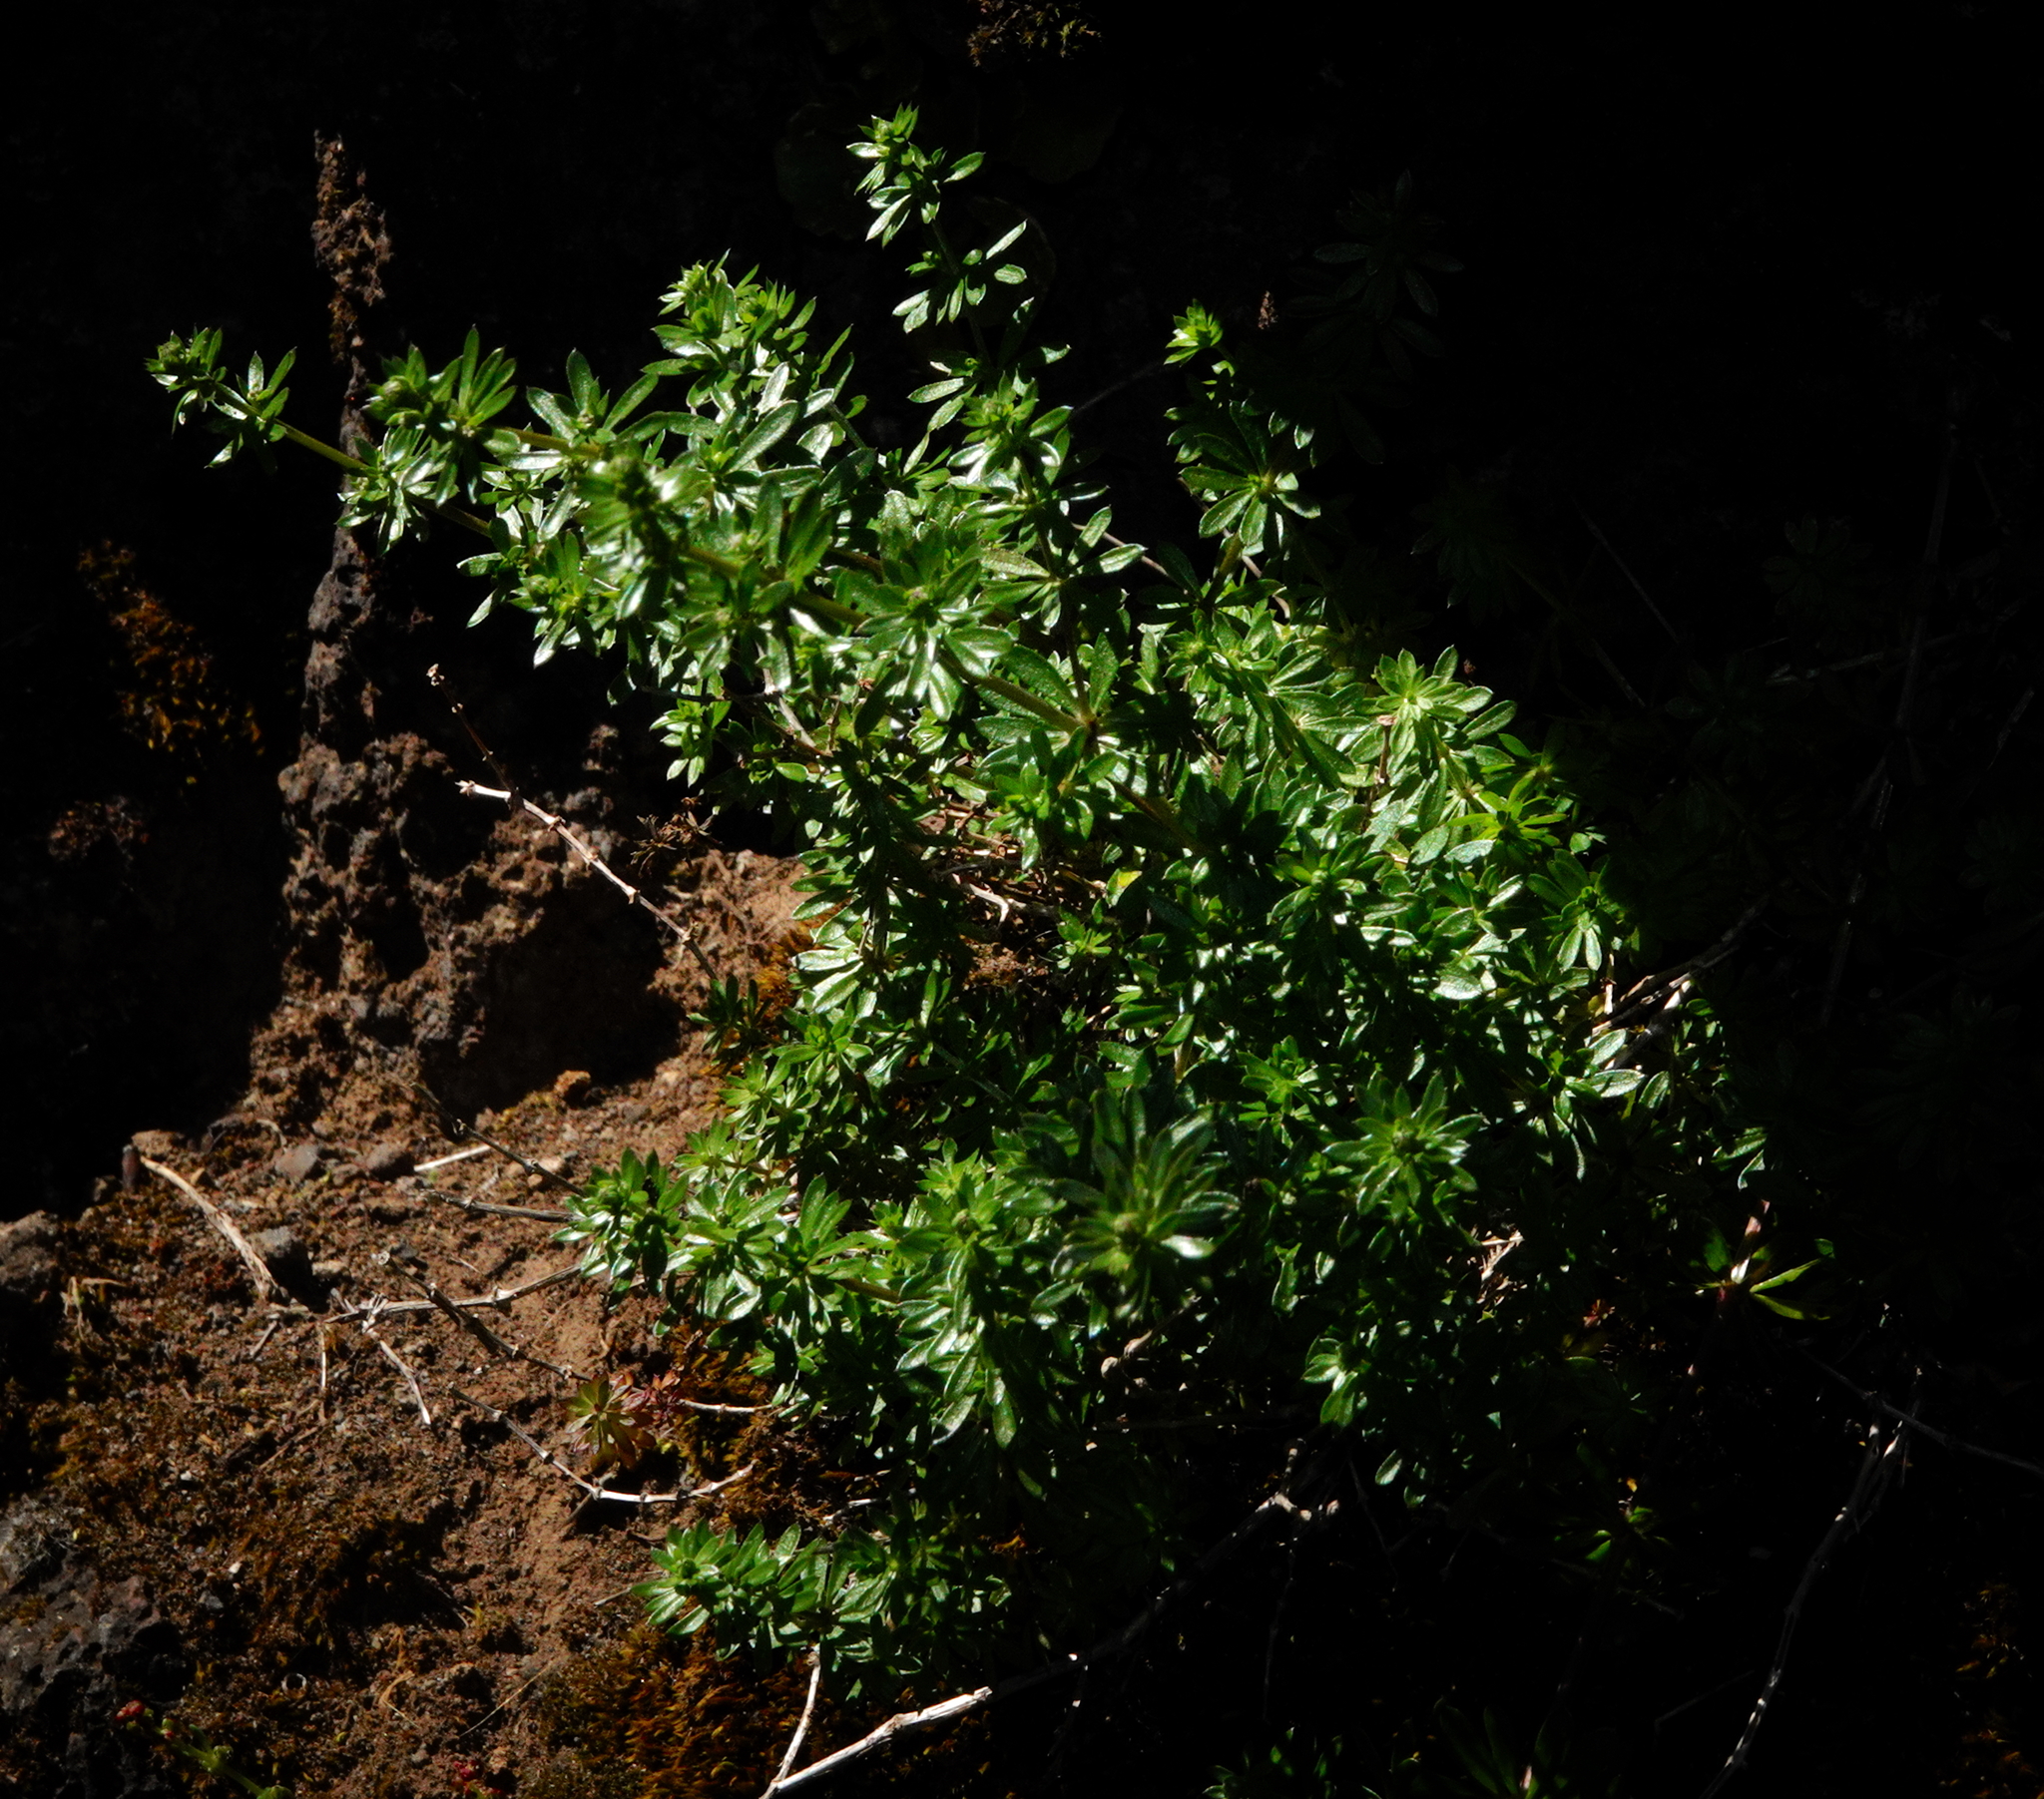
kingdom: Plantae
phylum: Tracheophyta
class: Magnoliopsida
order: Gentianales
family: Rubiaceae
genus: Galium
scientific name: Galium productum
